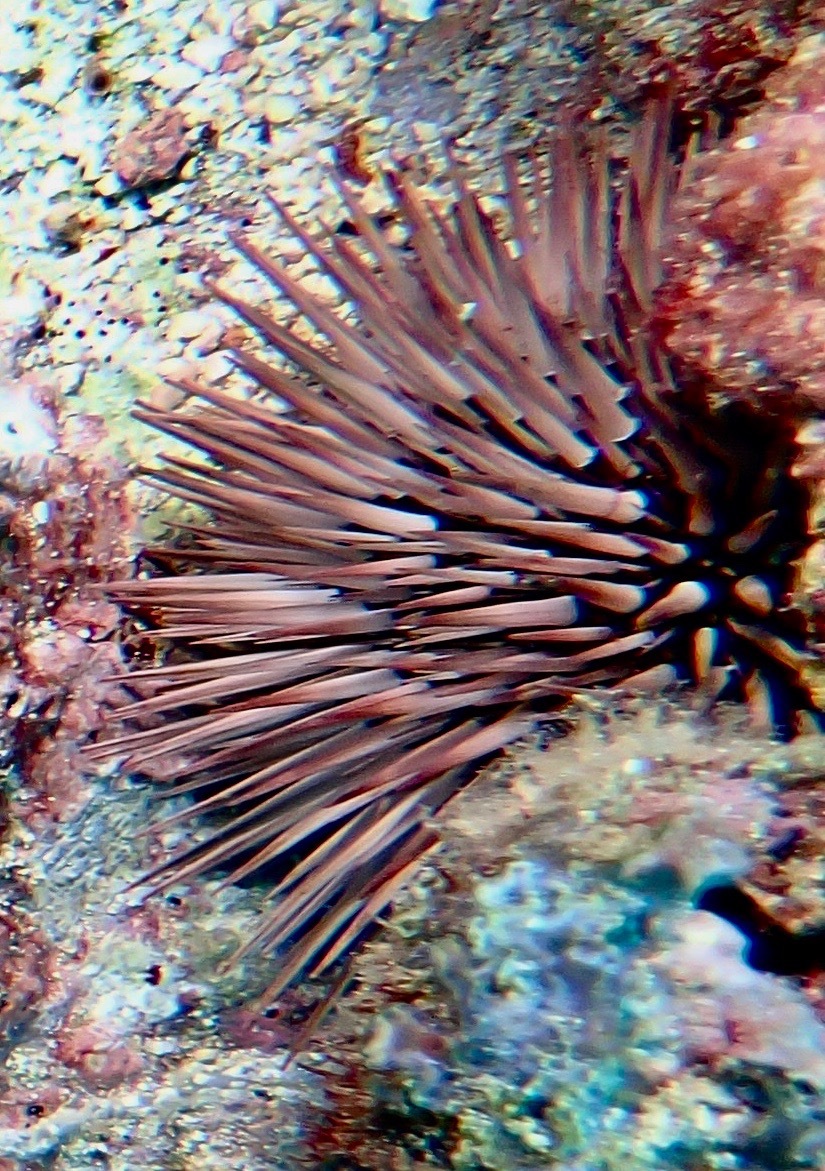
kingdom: Animalia
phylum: Echinodermata
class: Echinoidea
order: Camarodonta
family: Echinometridae
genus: Echinometra
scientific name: Echinometra mathaei
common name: Rock-boring urchin
